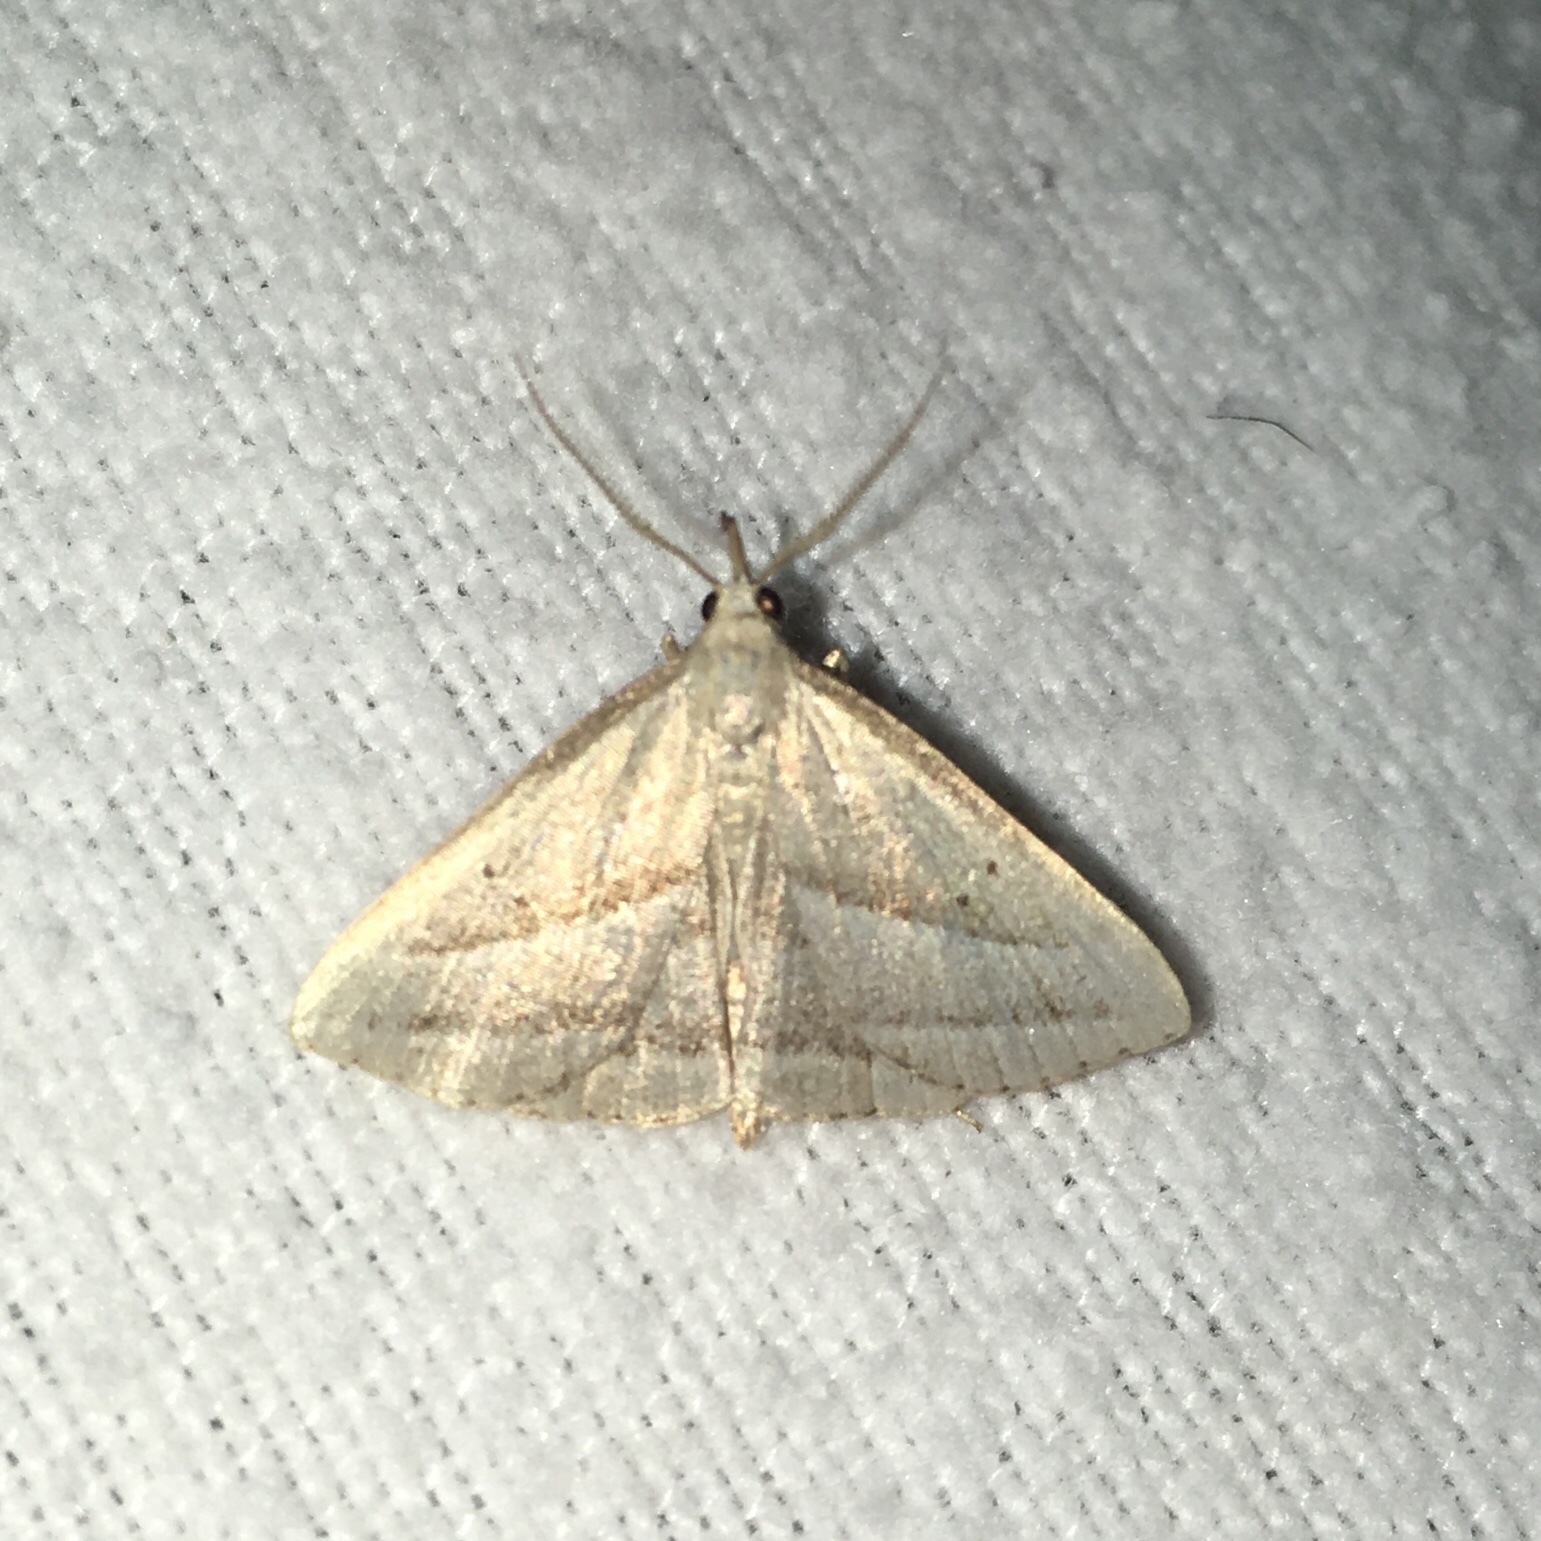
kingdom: Animalia
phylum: Arthropoda
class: Insecta
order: Lepidoptera
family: Erebidae
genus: Macrochilo
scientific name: Macrochilo absorptalis
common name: Slant-lined owlet
